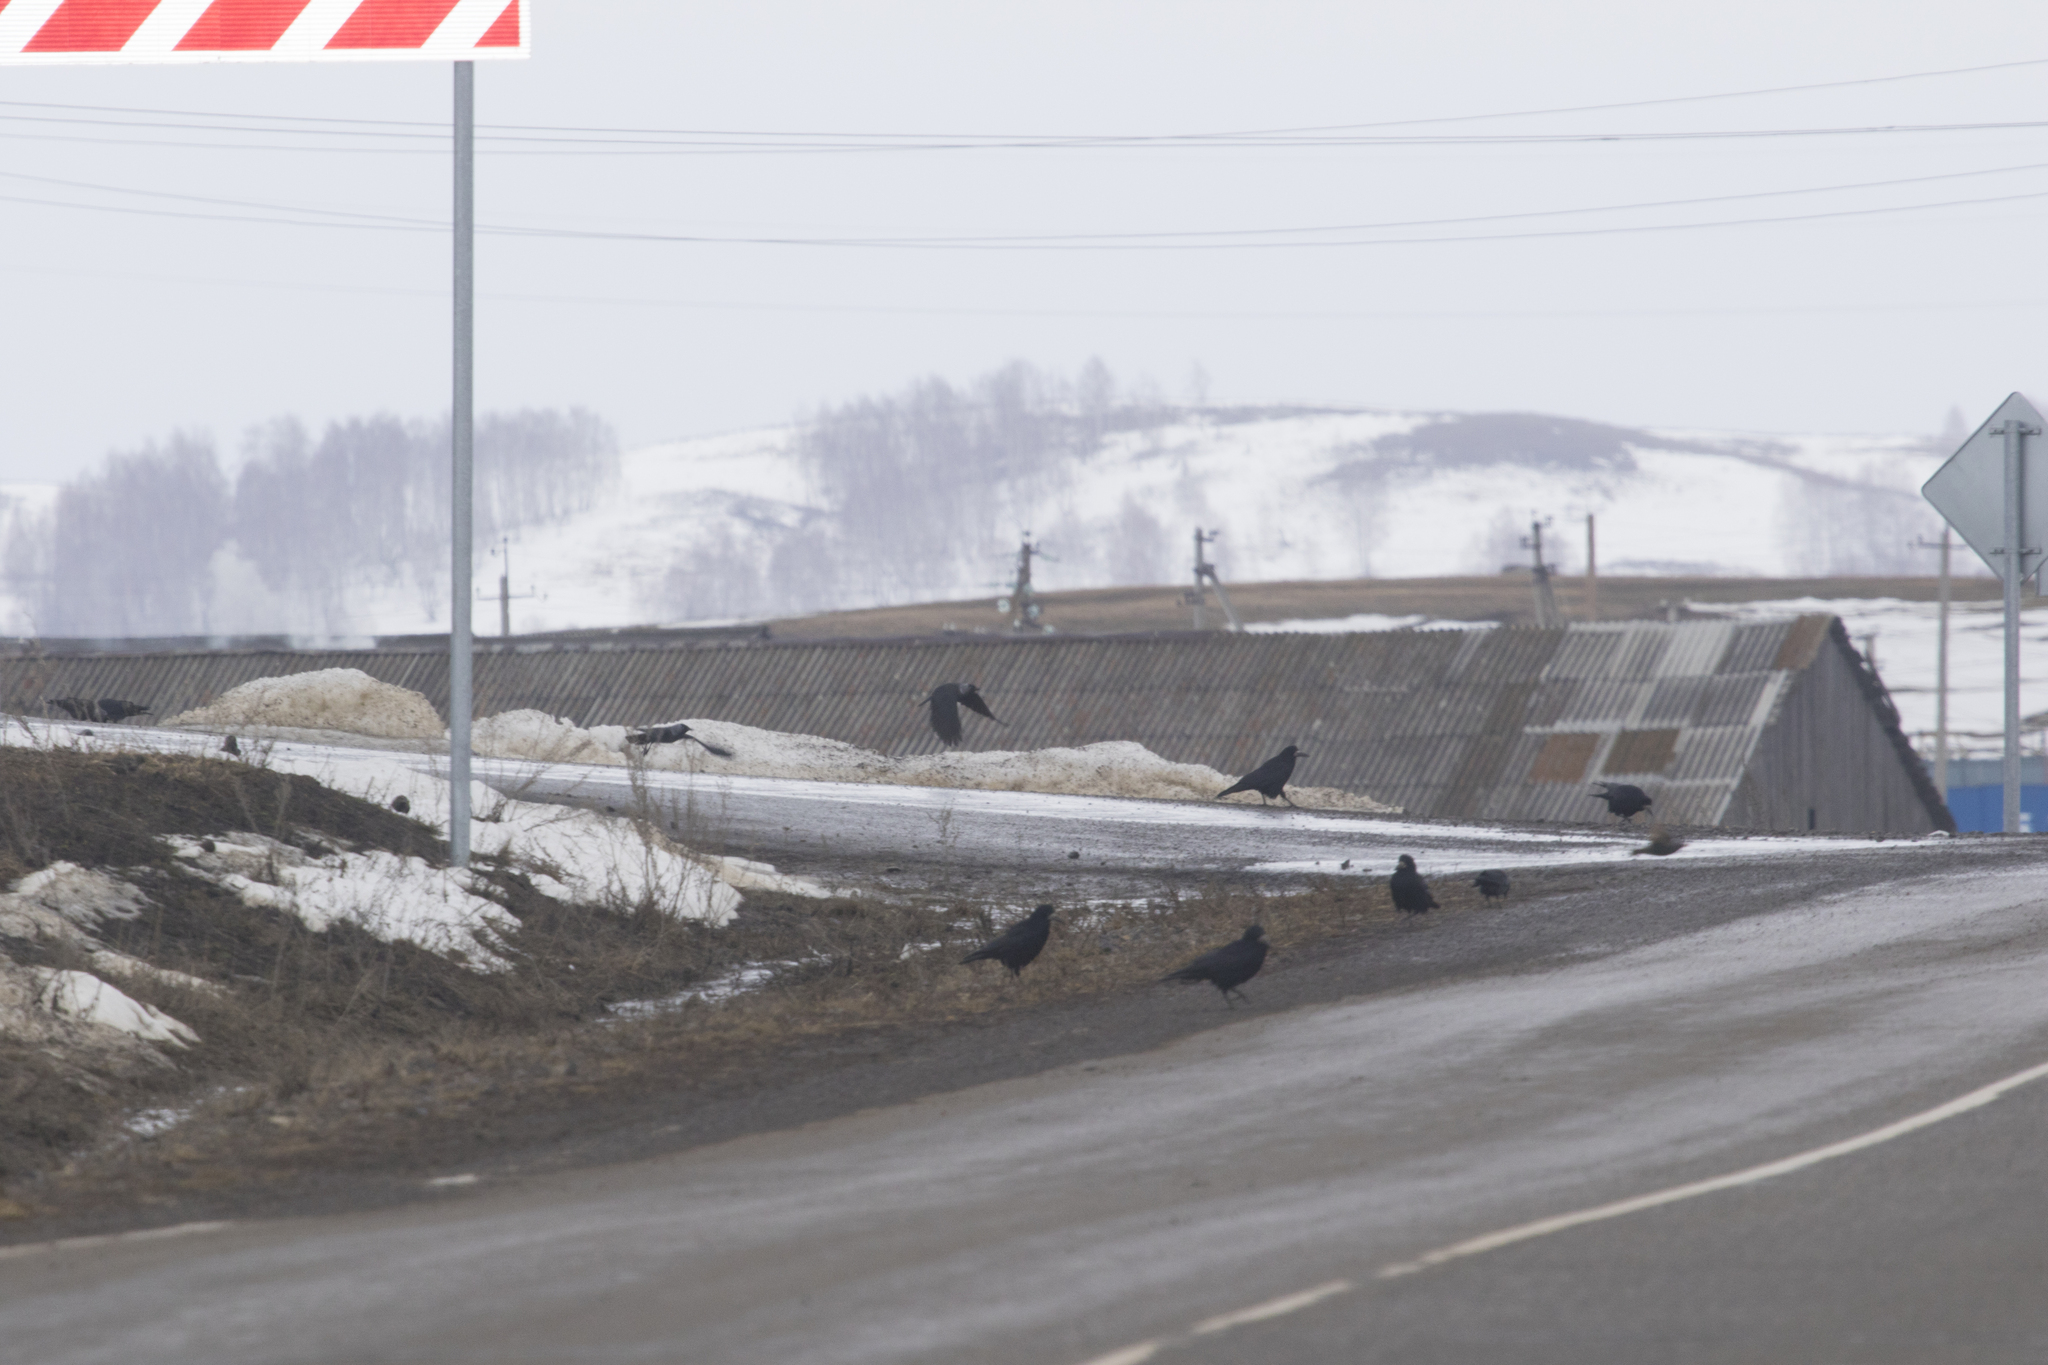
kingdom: Animalia
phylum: Chordata
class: Aves
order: Passeriformes
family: Corvidae
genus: Coloeus
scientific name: Coloeus monedula
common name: Western jackdaw
